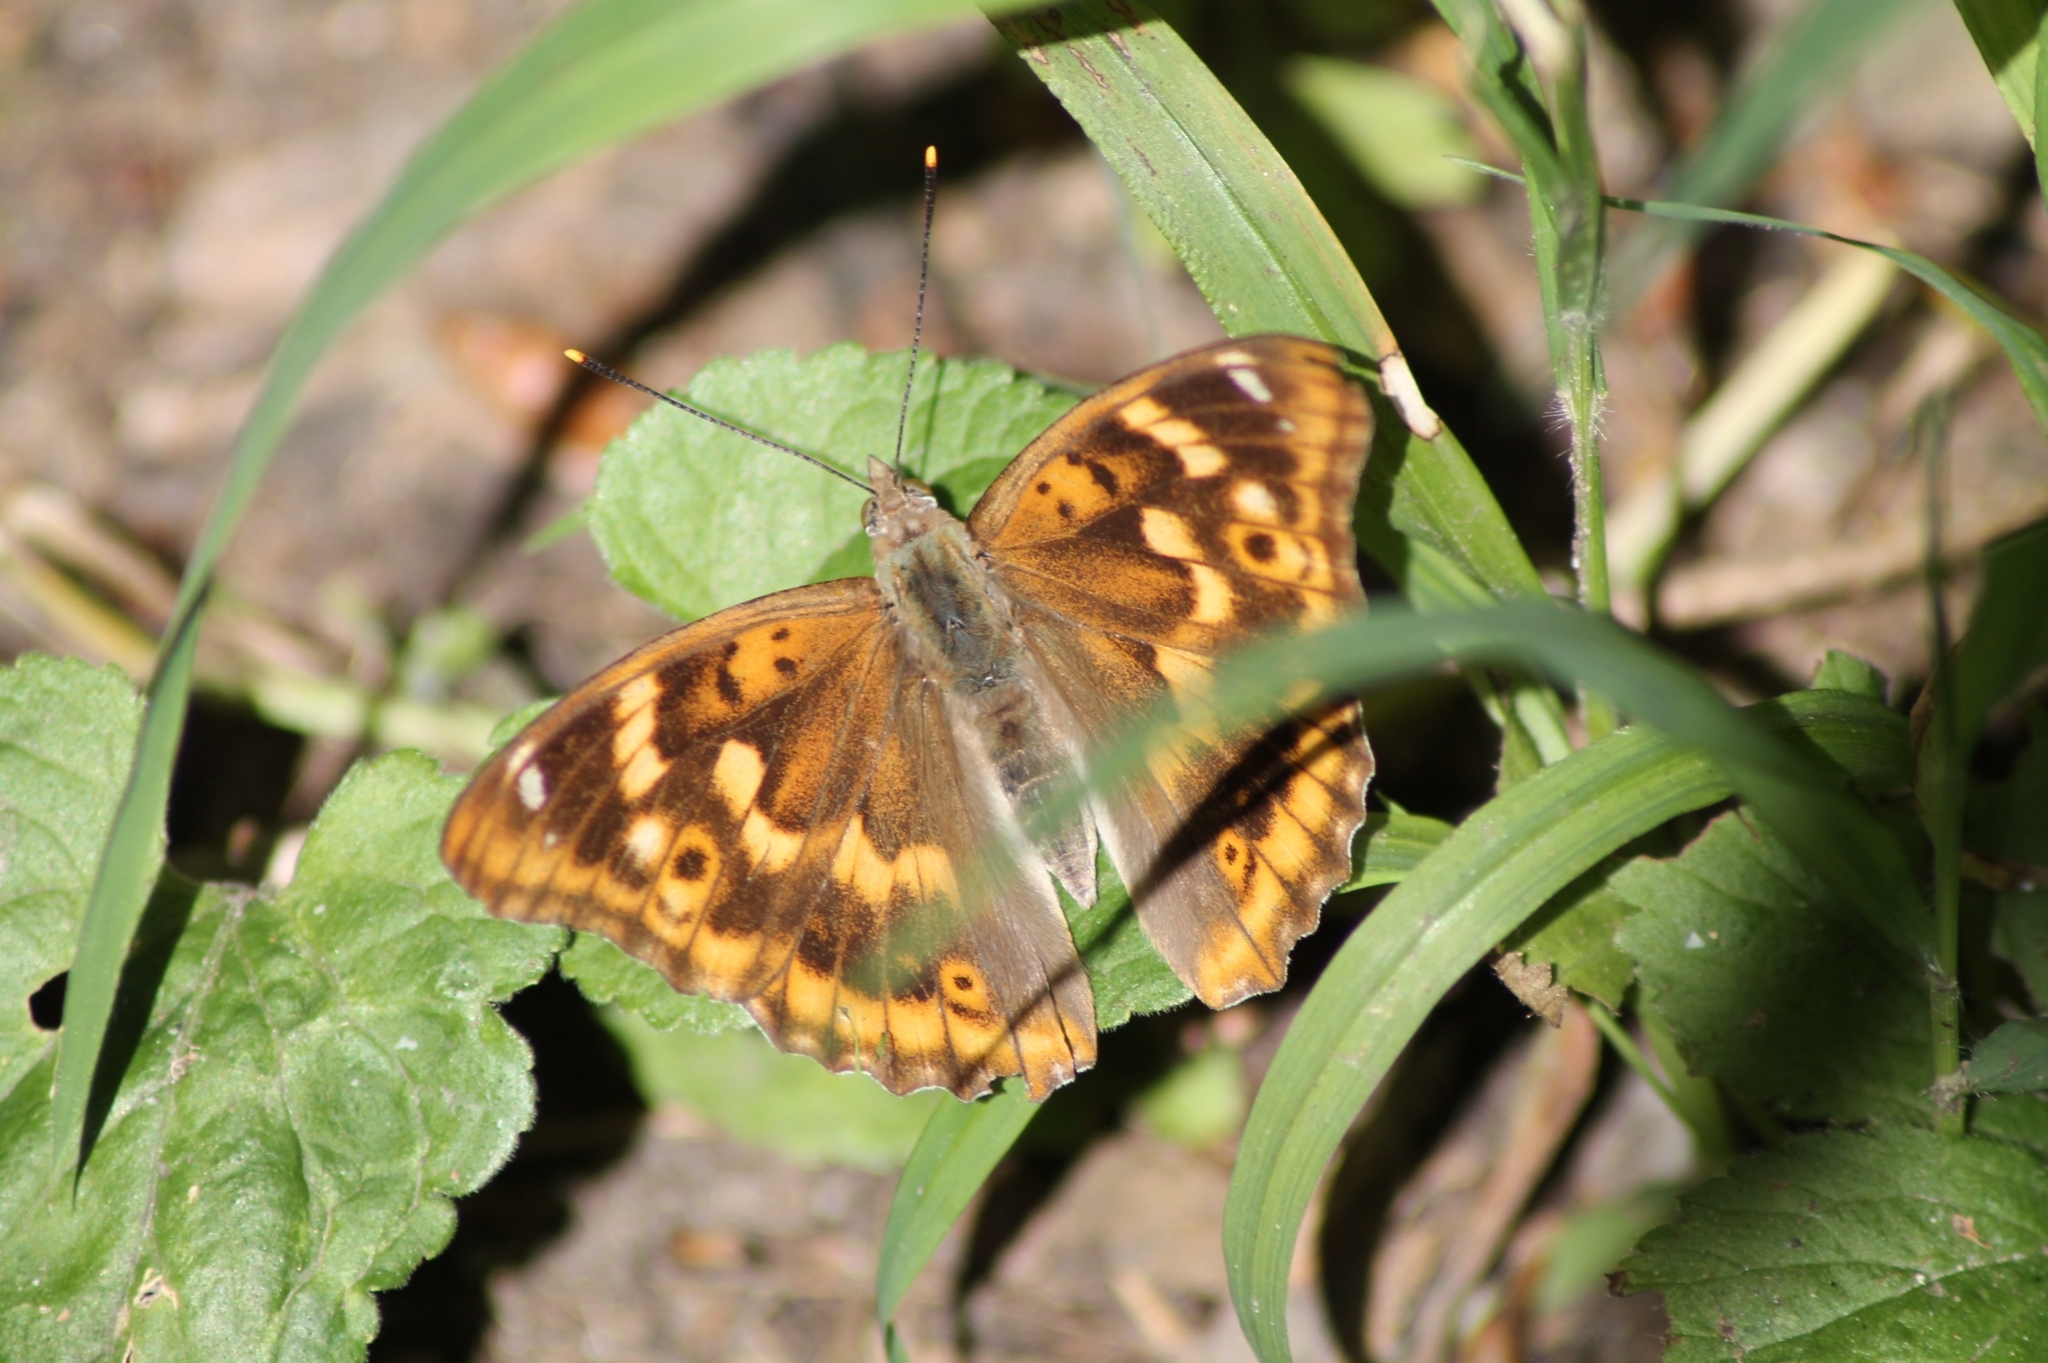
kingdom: Animalia
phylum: Arthropoda
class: Insecta
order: Lepidoptera
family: Nymphalidae
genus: Apatura
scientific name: Apatura ilia
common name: Lesser purple emperor
